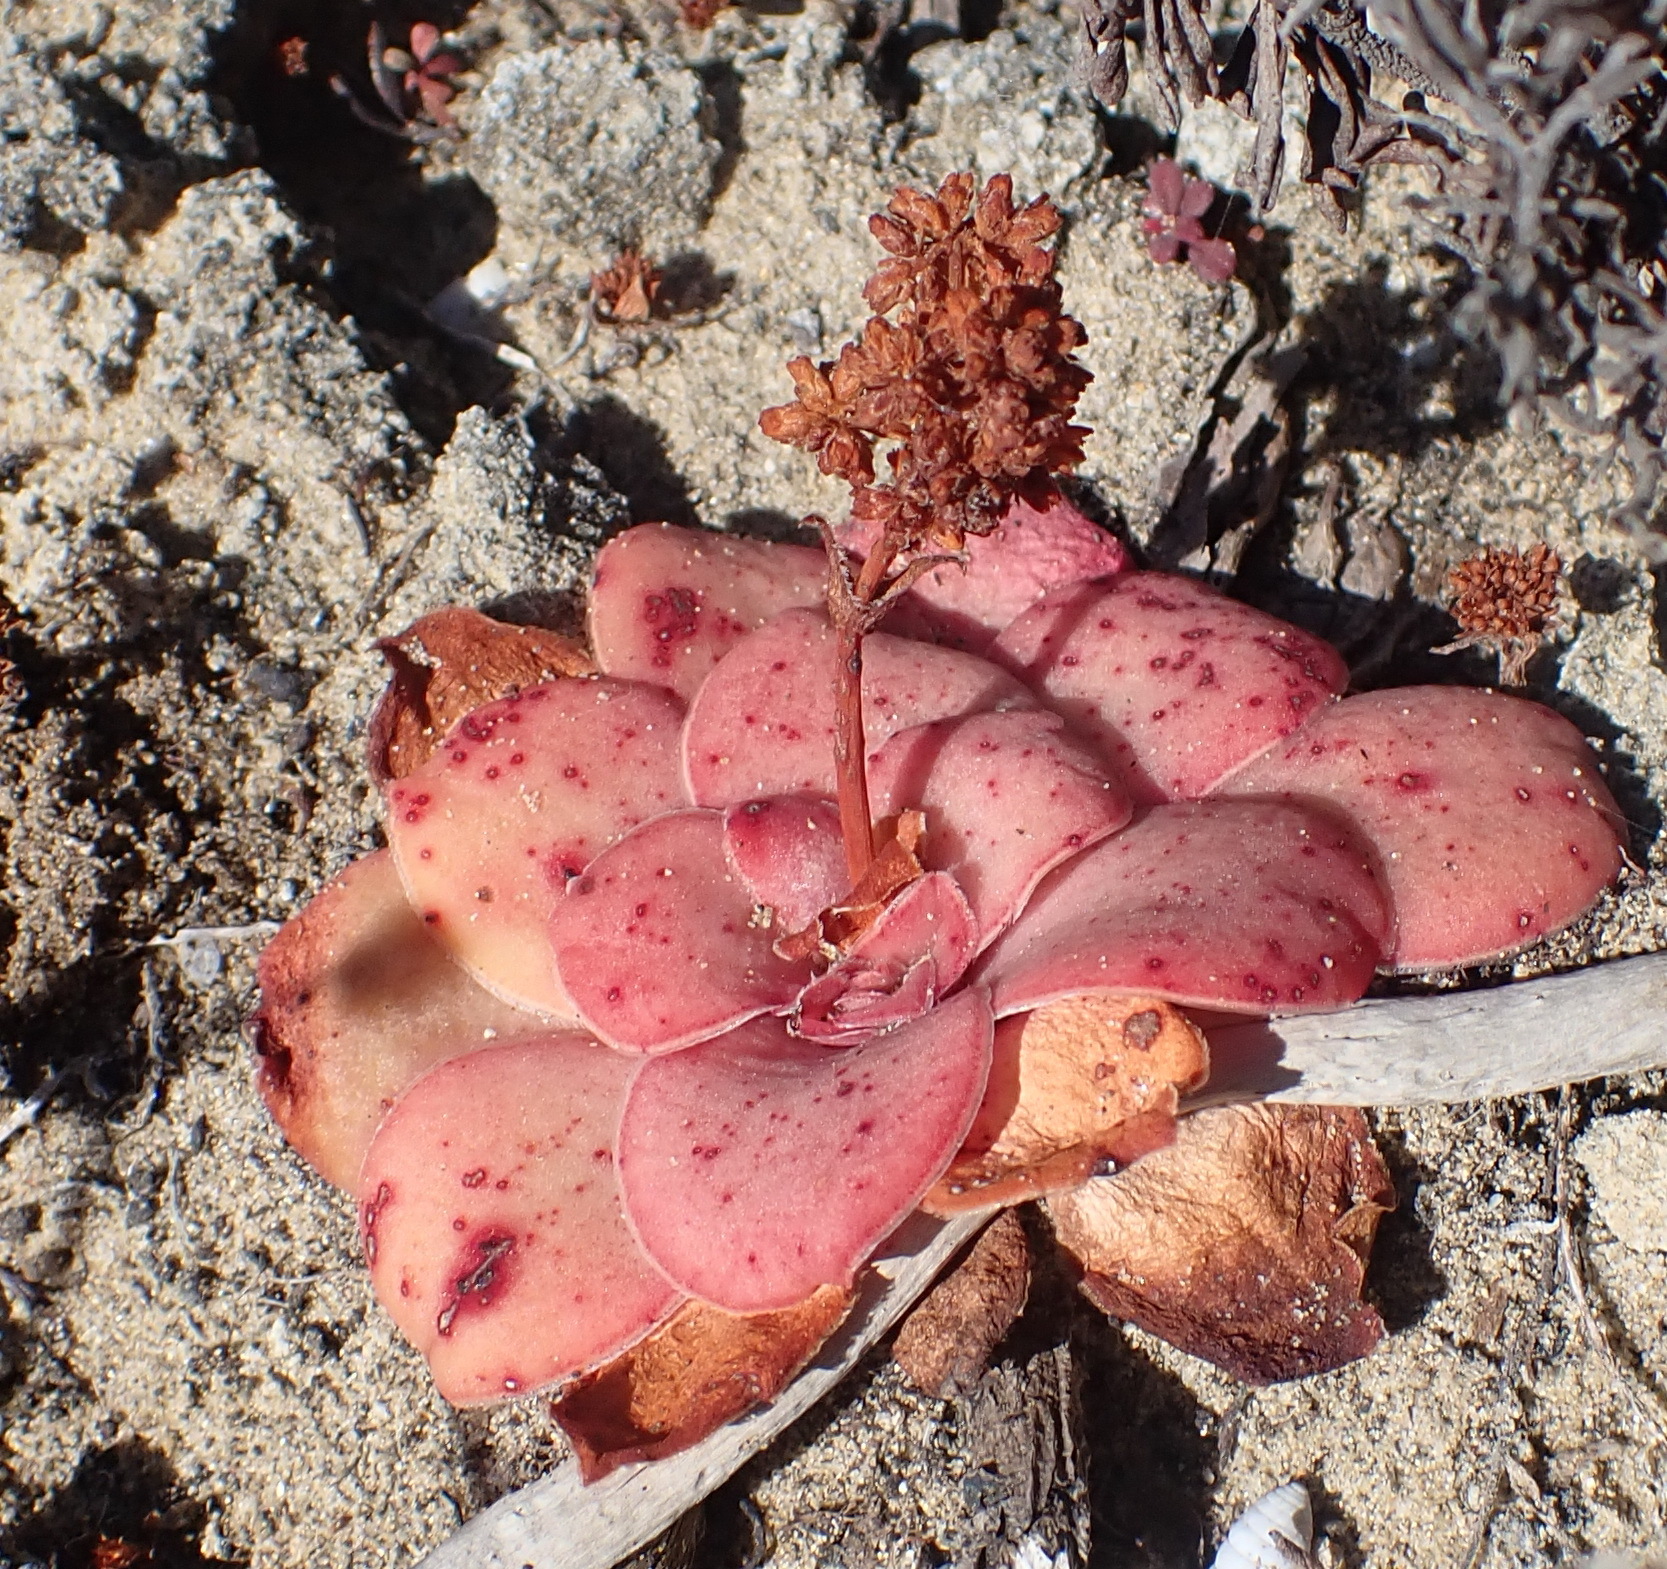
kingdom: Plantae
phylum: Tracheophyta
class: Magnoliopsida
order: Saxifragales
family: Crassulaceae
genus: Crassula
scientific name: Crassula orbicularis
